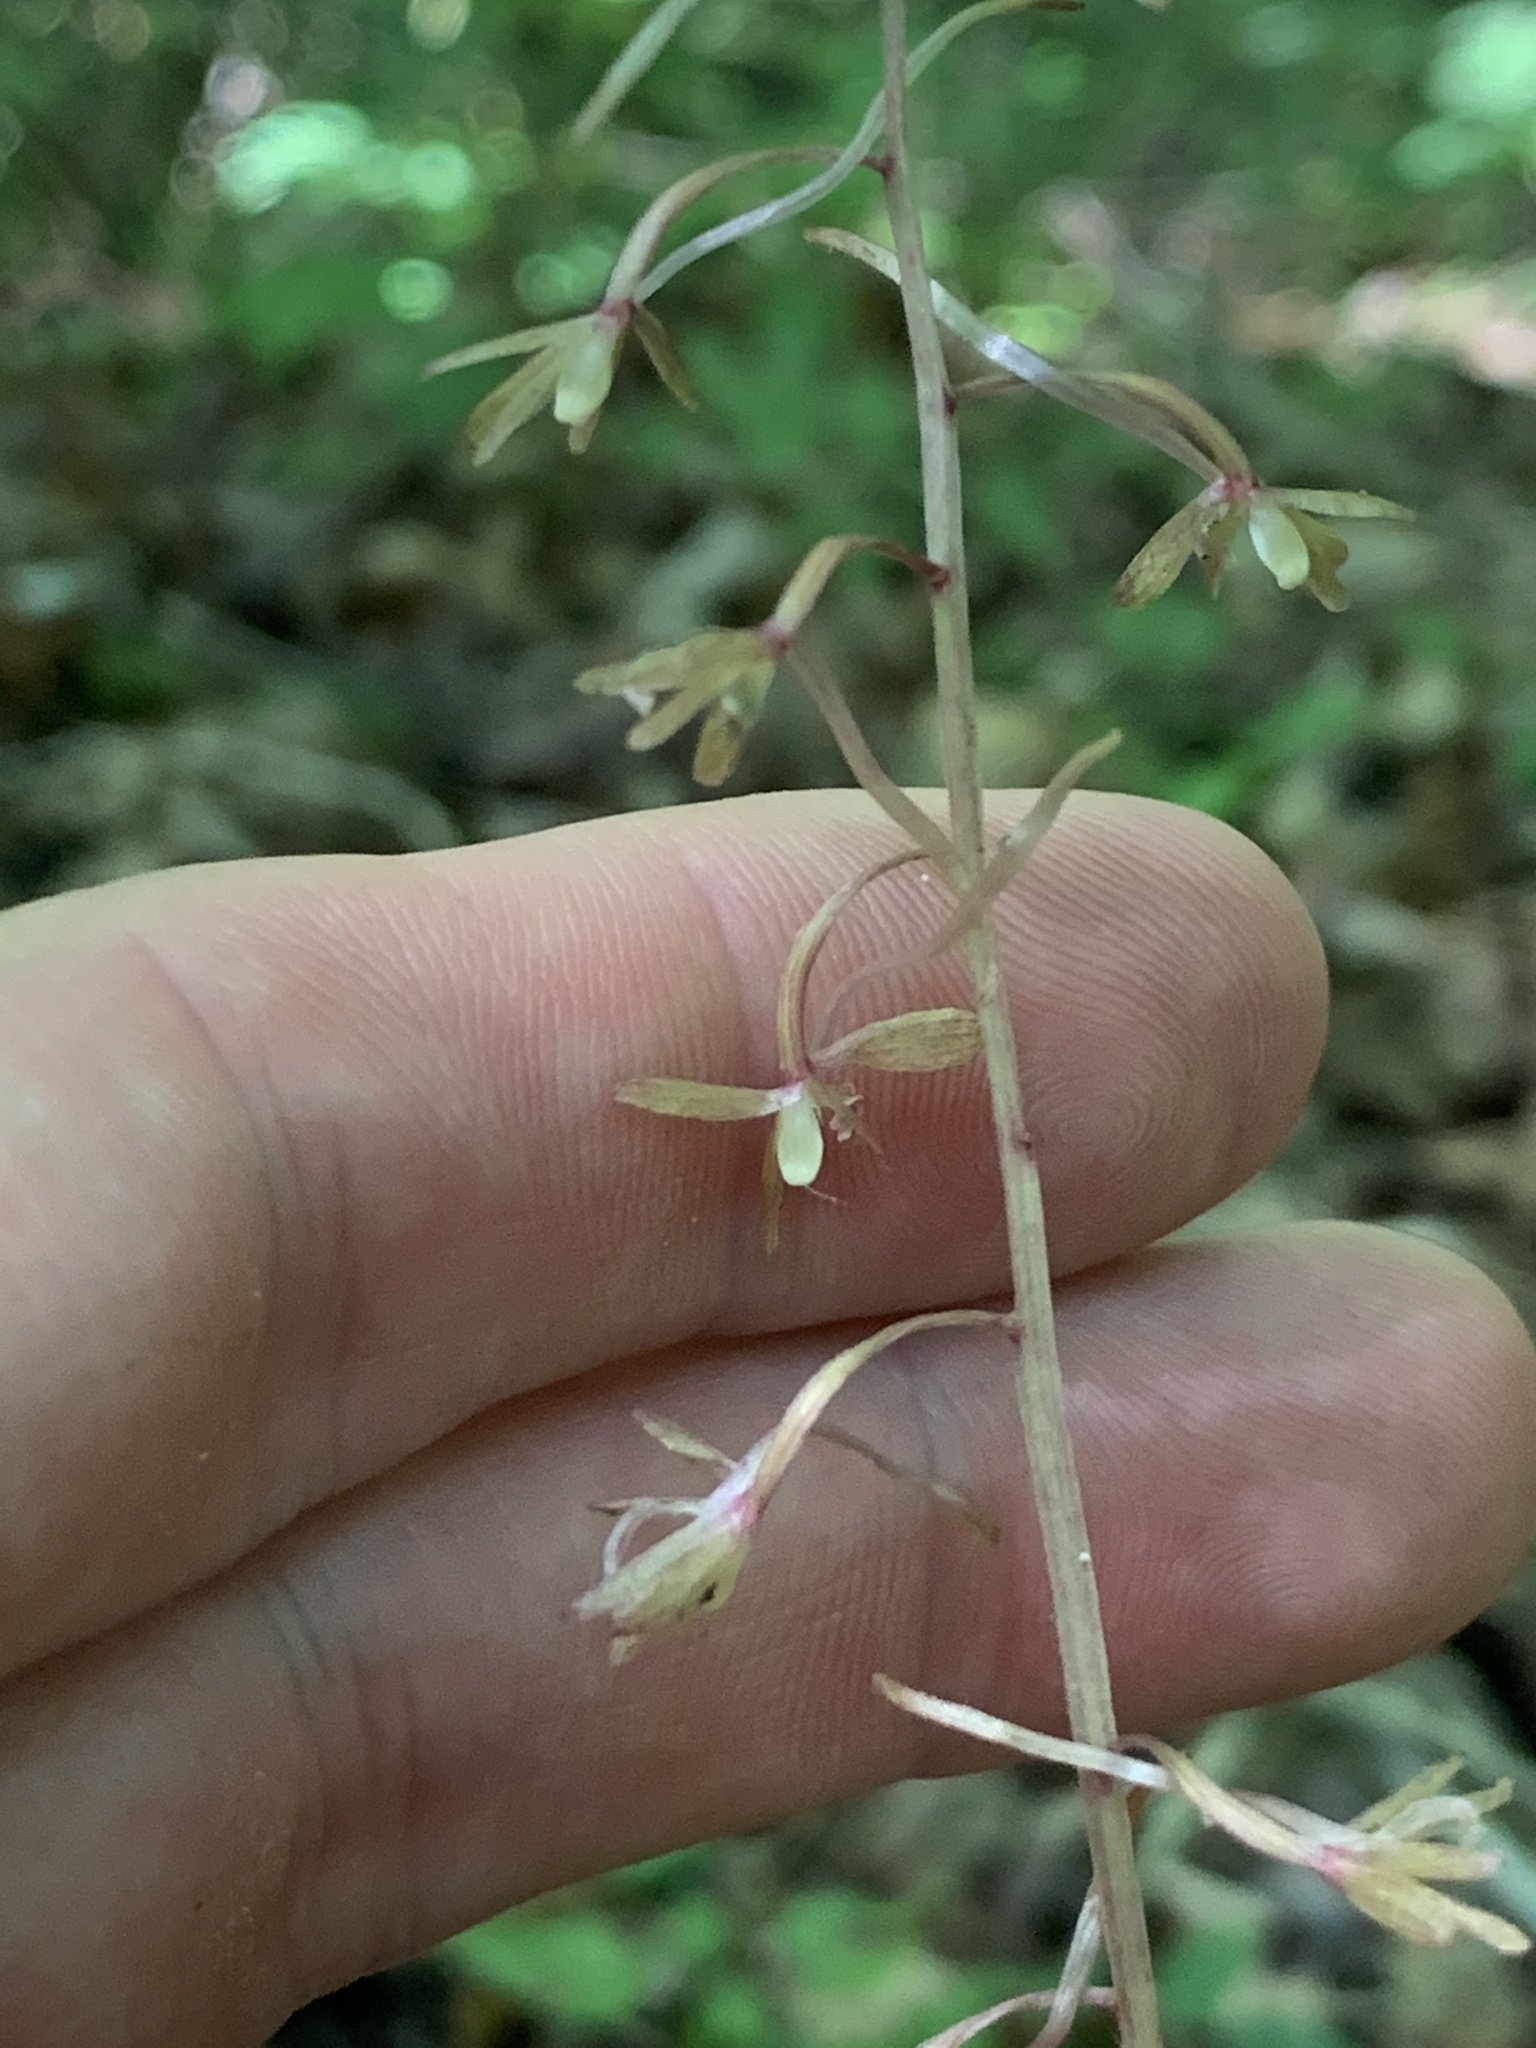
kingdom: Plantae
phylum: Tracheophyta
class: Liliopsida
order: Asparagales
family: Orchidaceae
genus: Tipularia
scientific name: Tipularia discolor
